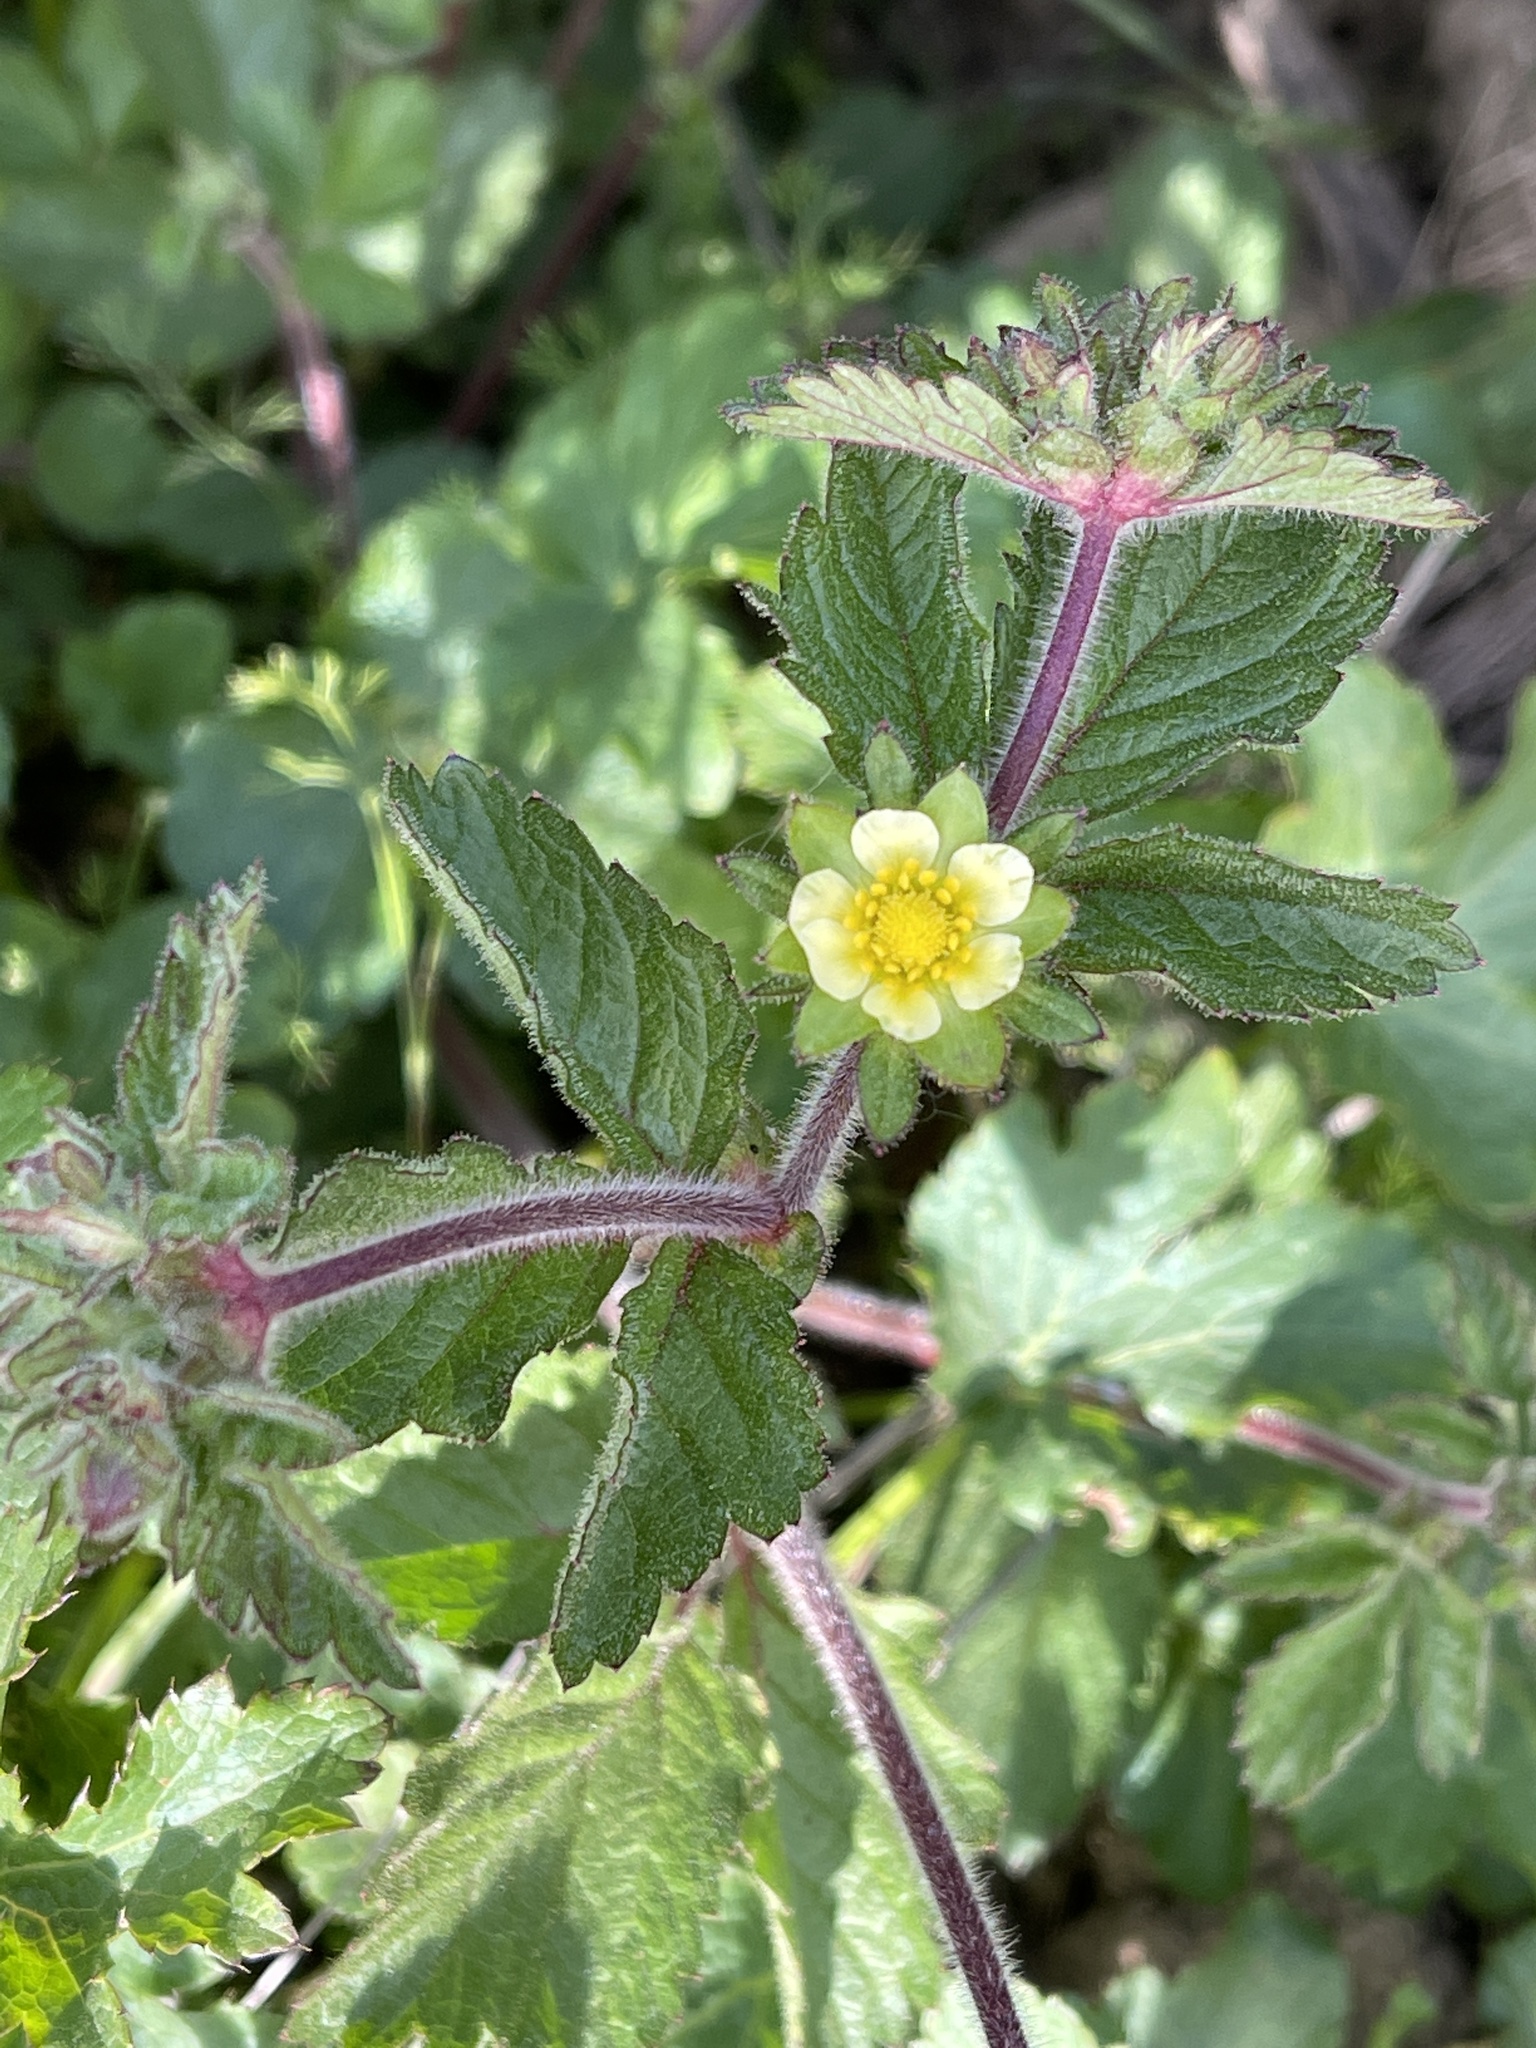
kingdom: Plantae
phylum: Tracheophyta
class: Magnoliopsida
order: Rosales
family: Rosaceae
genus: Drymocallis
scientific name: Drymocallis glandulosa
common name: Sticky cinquefoil
